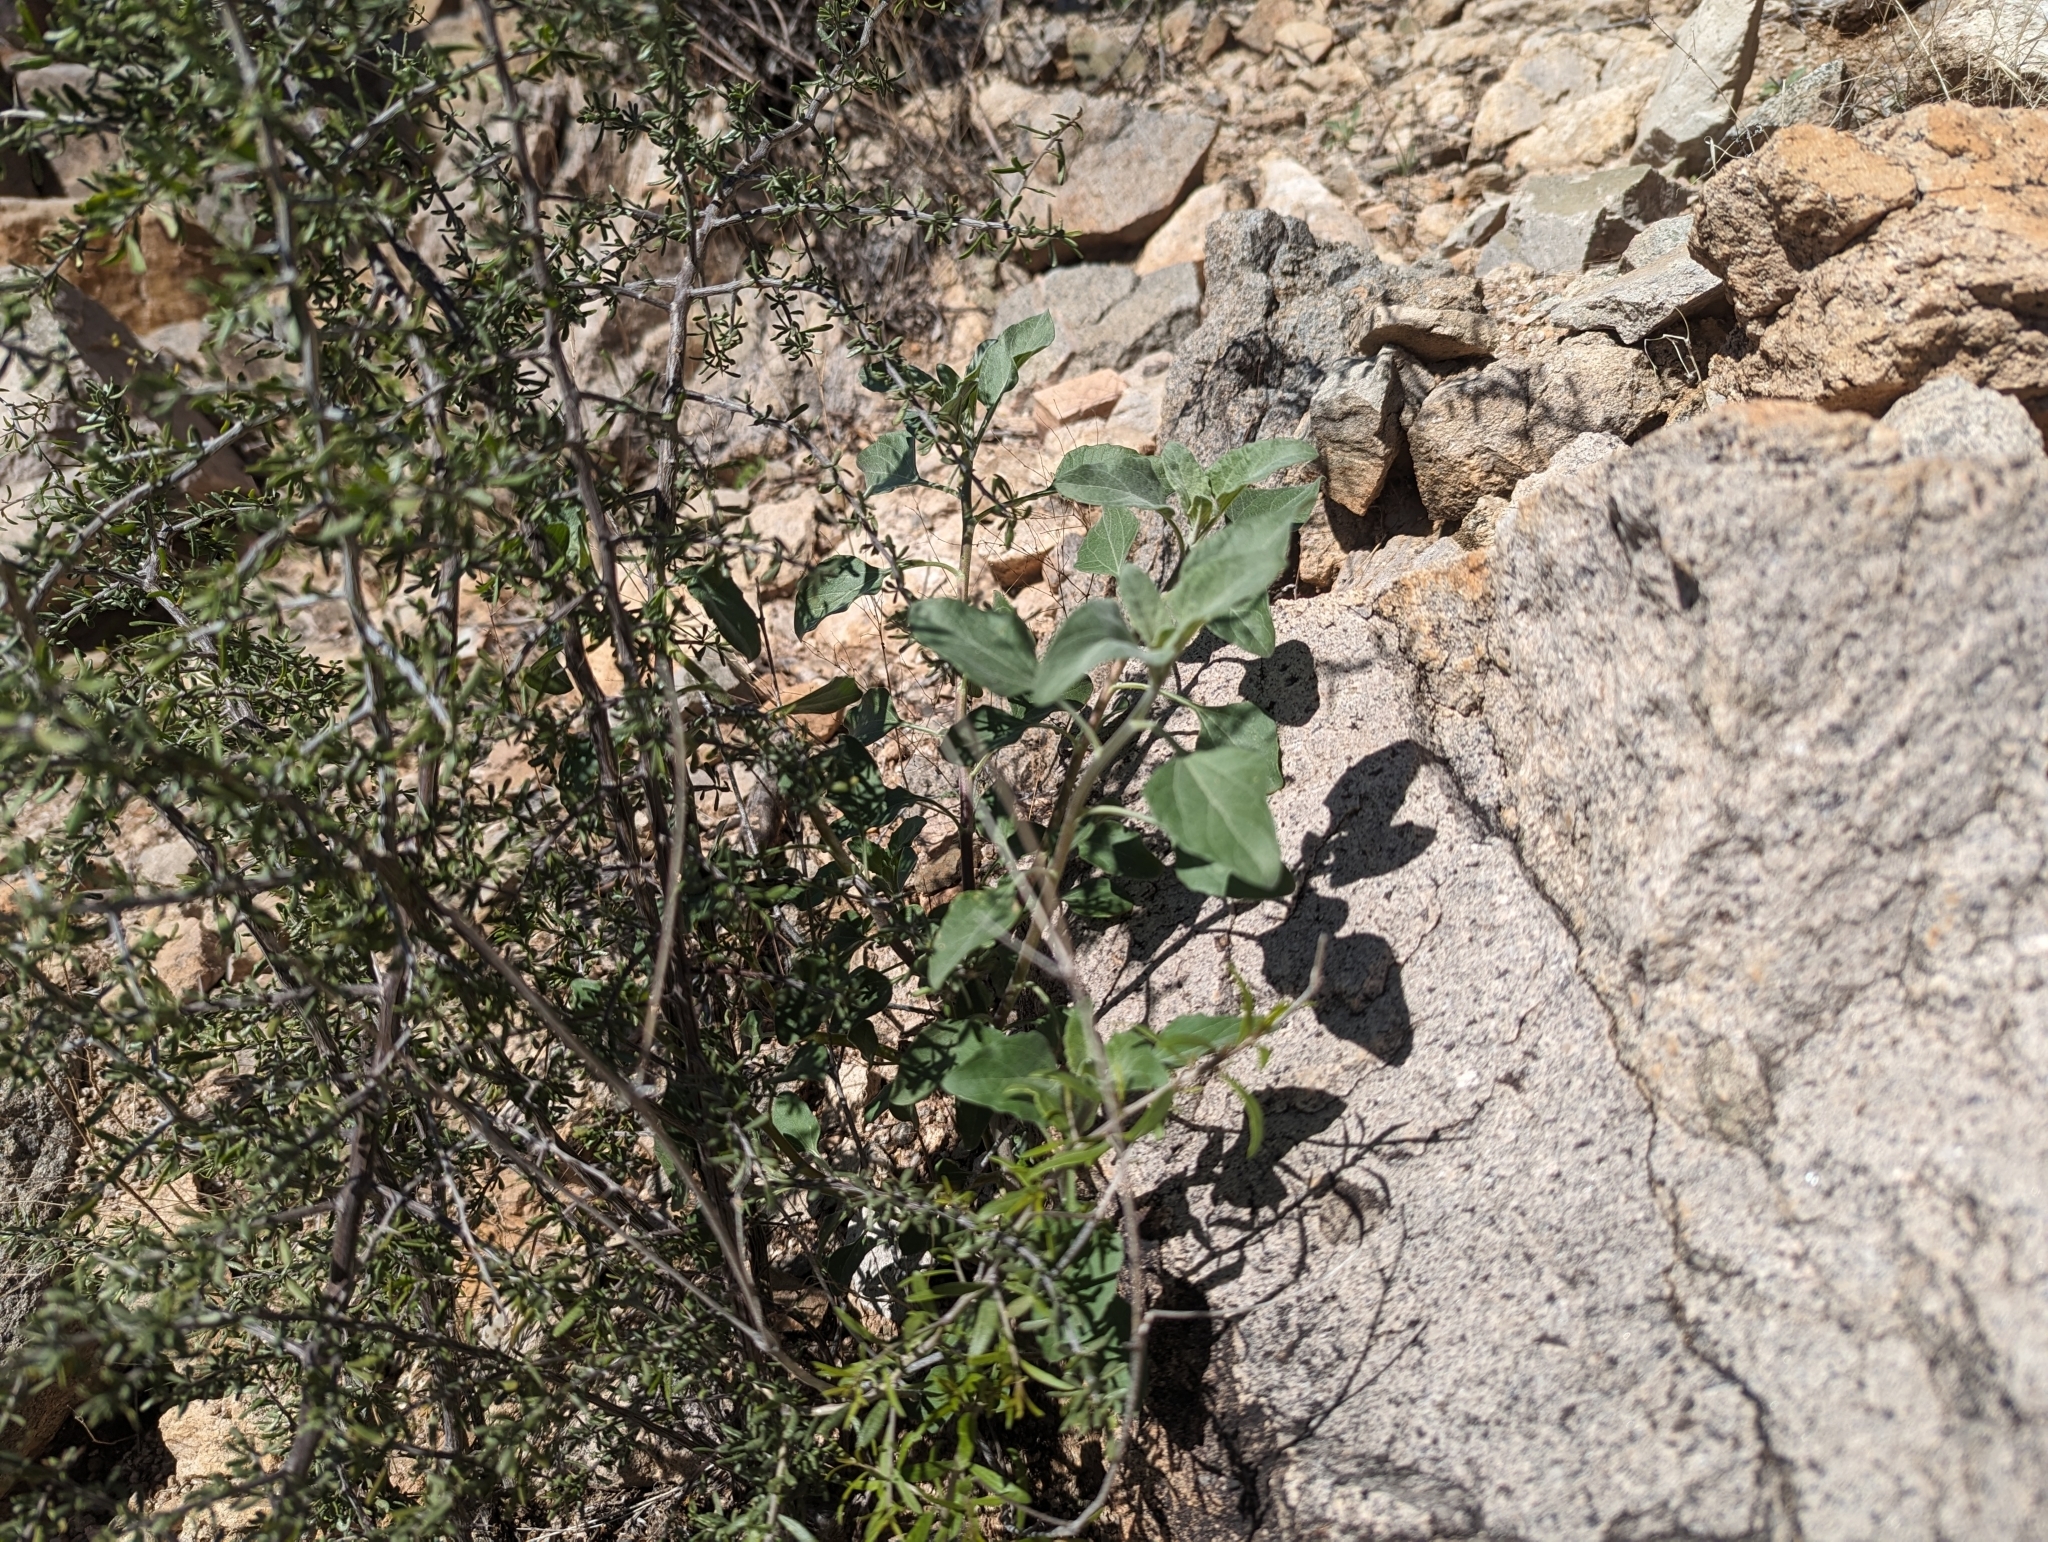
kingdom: Plantae
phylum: Tracheophyta
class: Magnoliopsida
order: Asterales
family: Asteraceae
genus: Encelia
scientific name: Encelia farinosa
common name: Brittlebush
